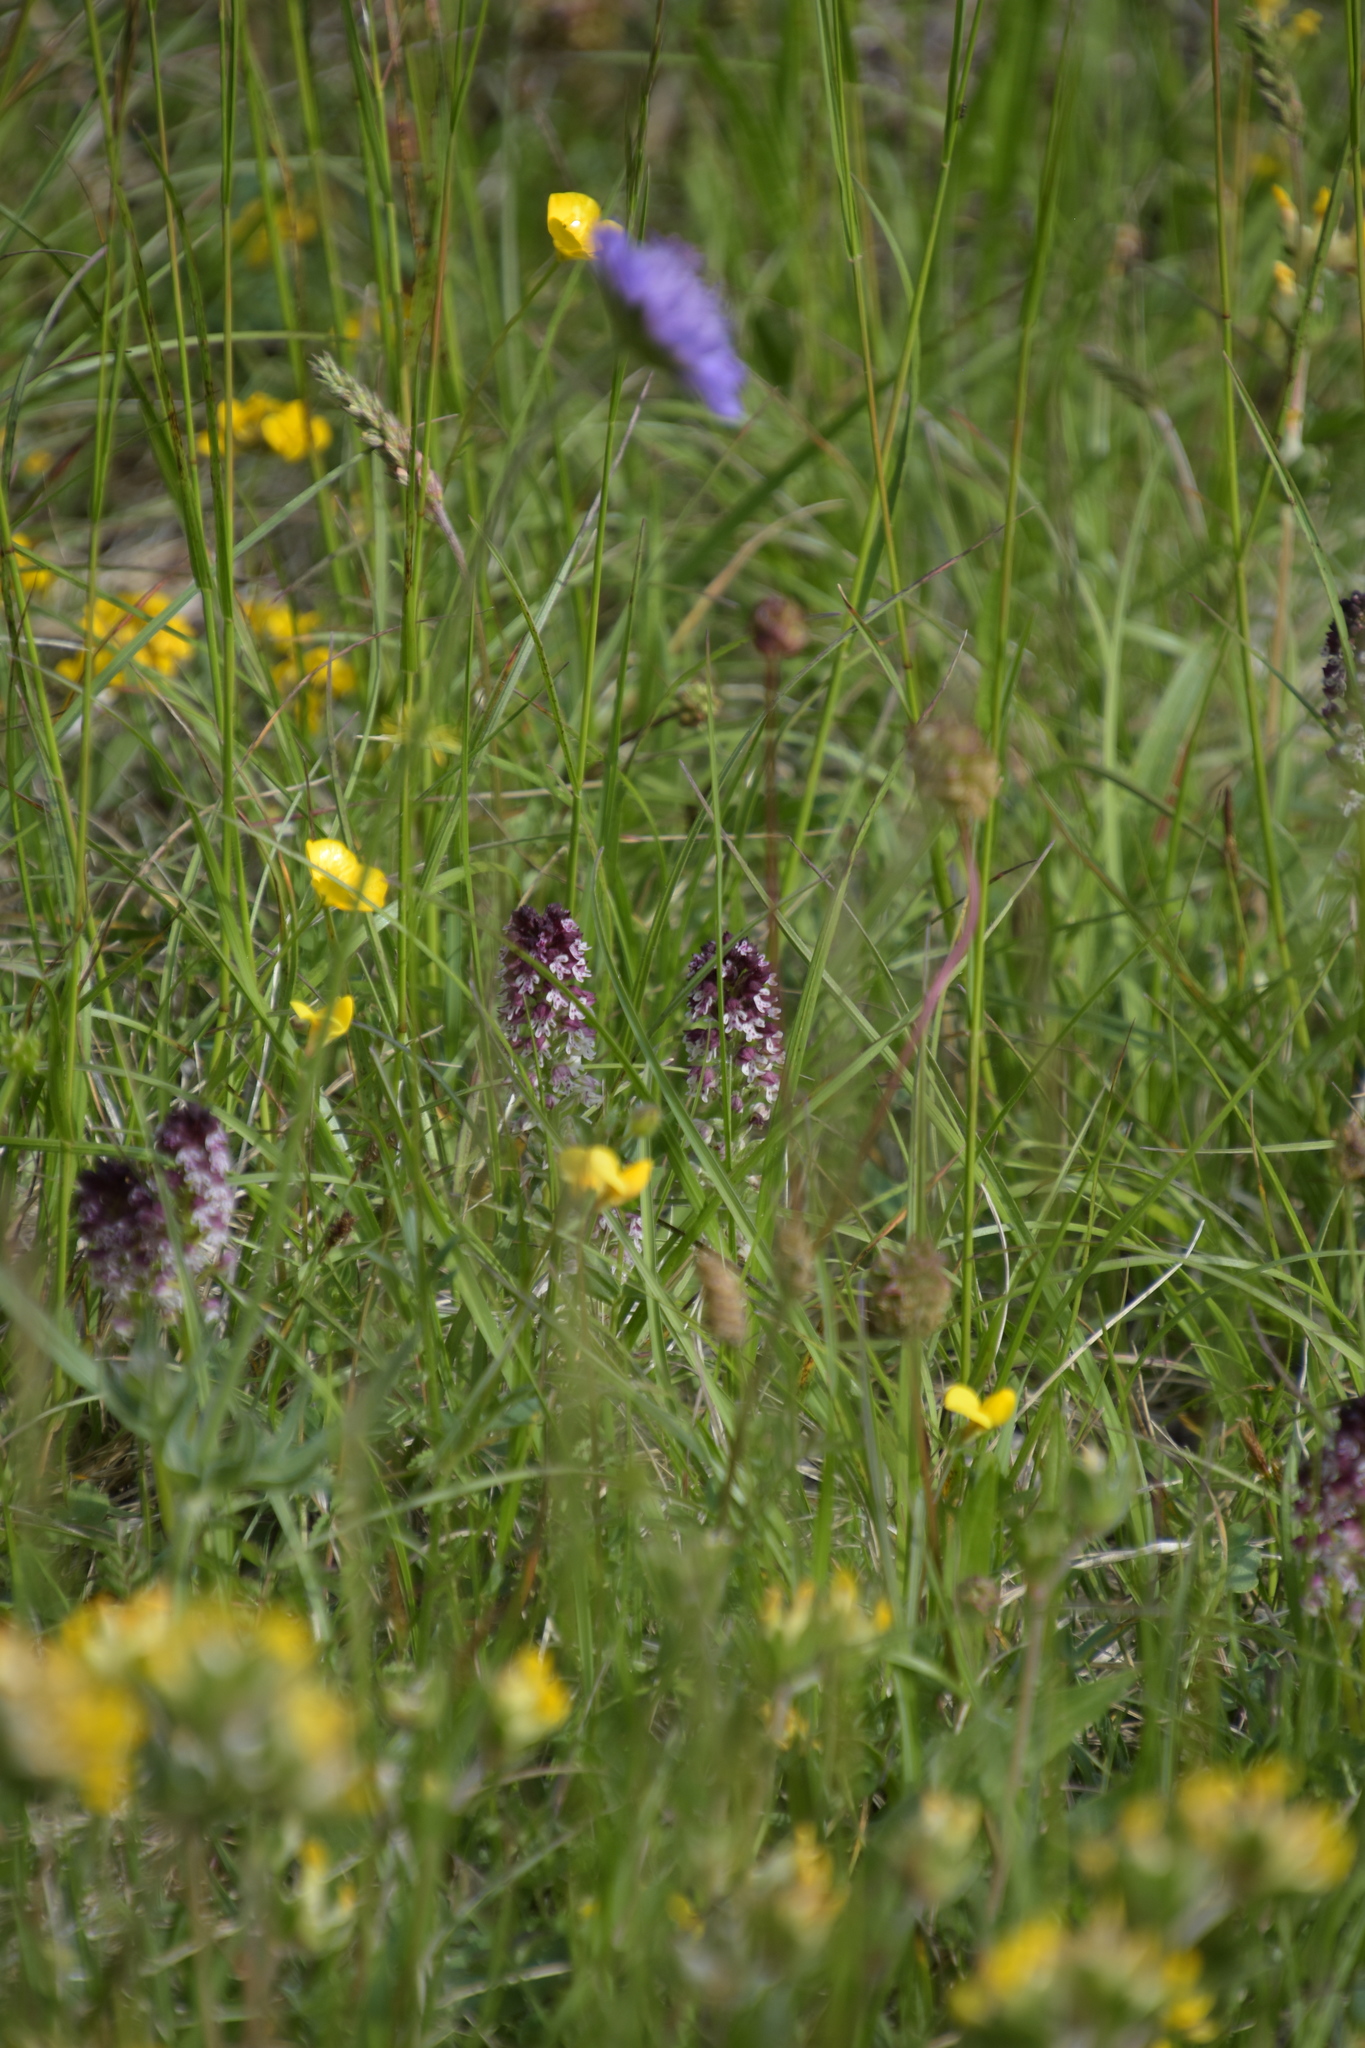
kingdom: Plantae
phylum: Tracheophyta
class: Liliopsida
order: Asparagales
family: Orchidaceae
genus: Neotinea
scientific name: Neotinea ustulata
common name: Burnt orchid
